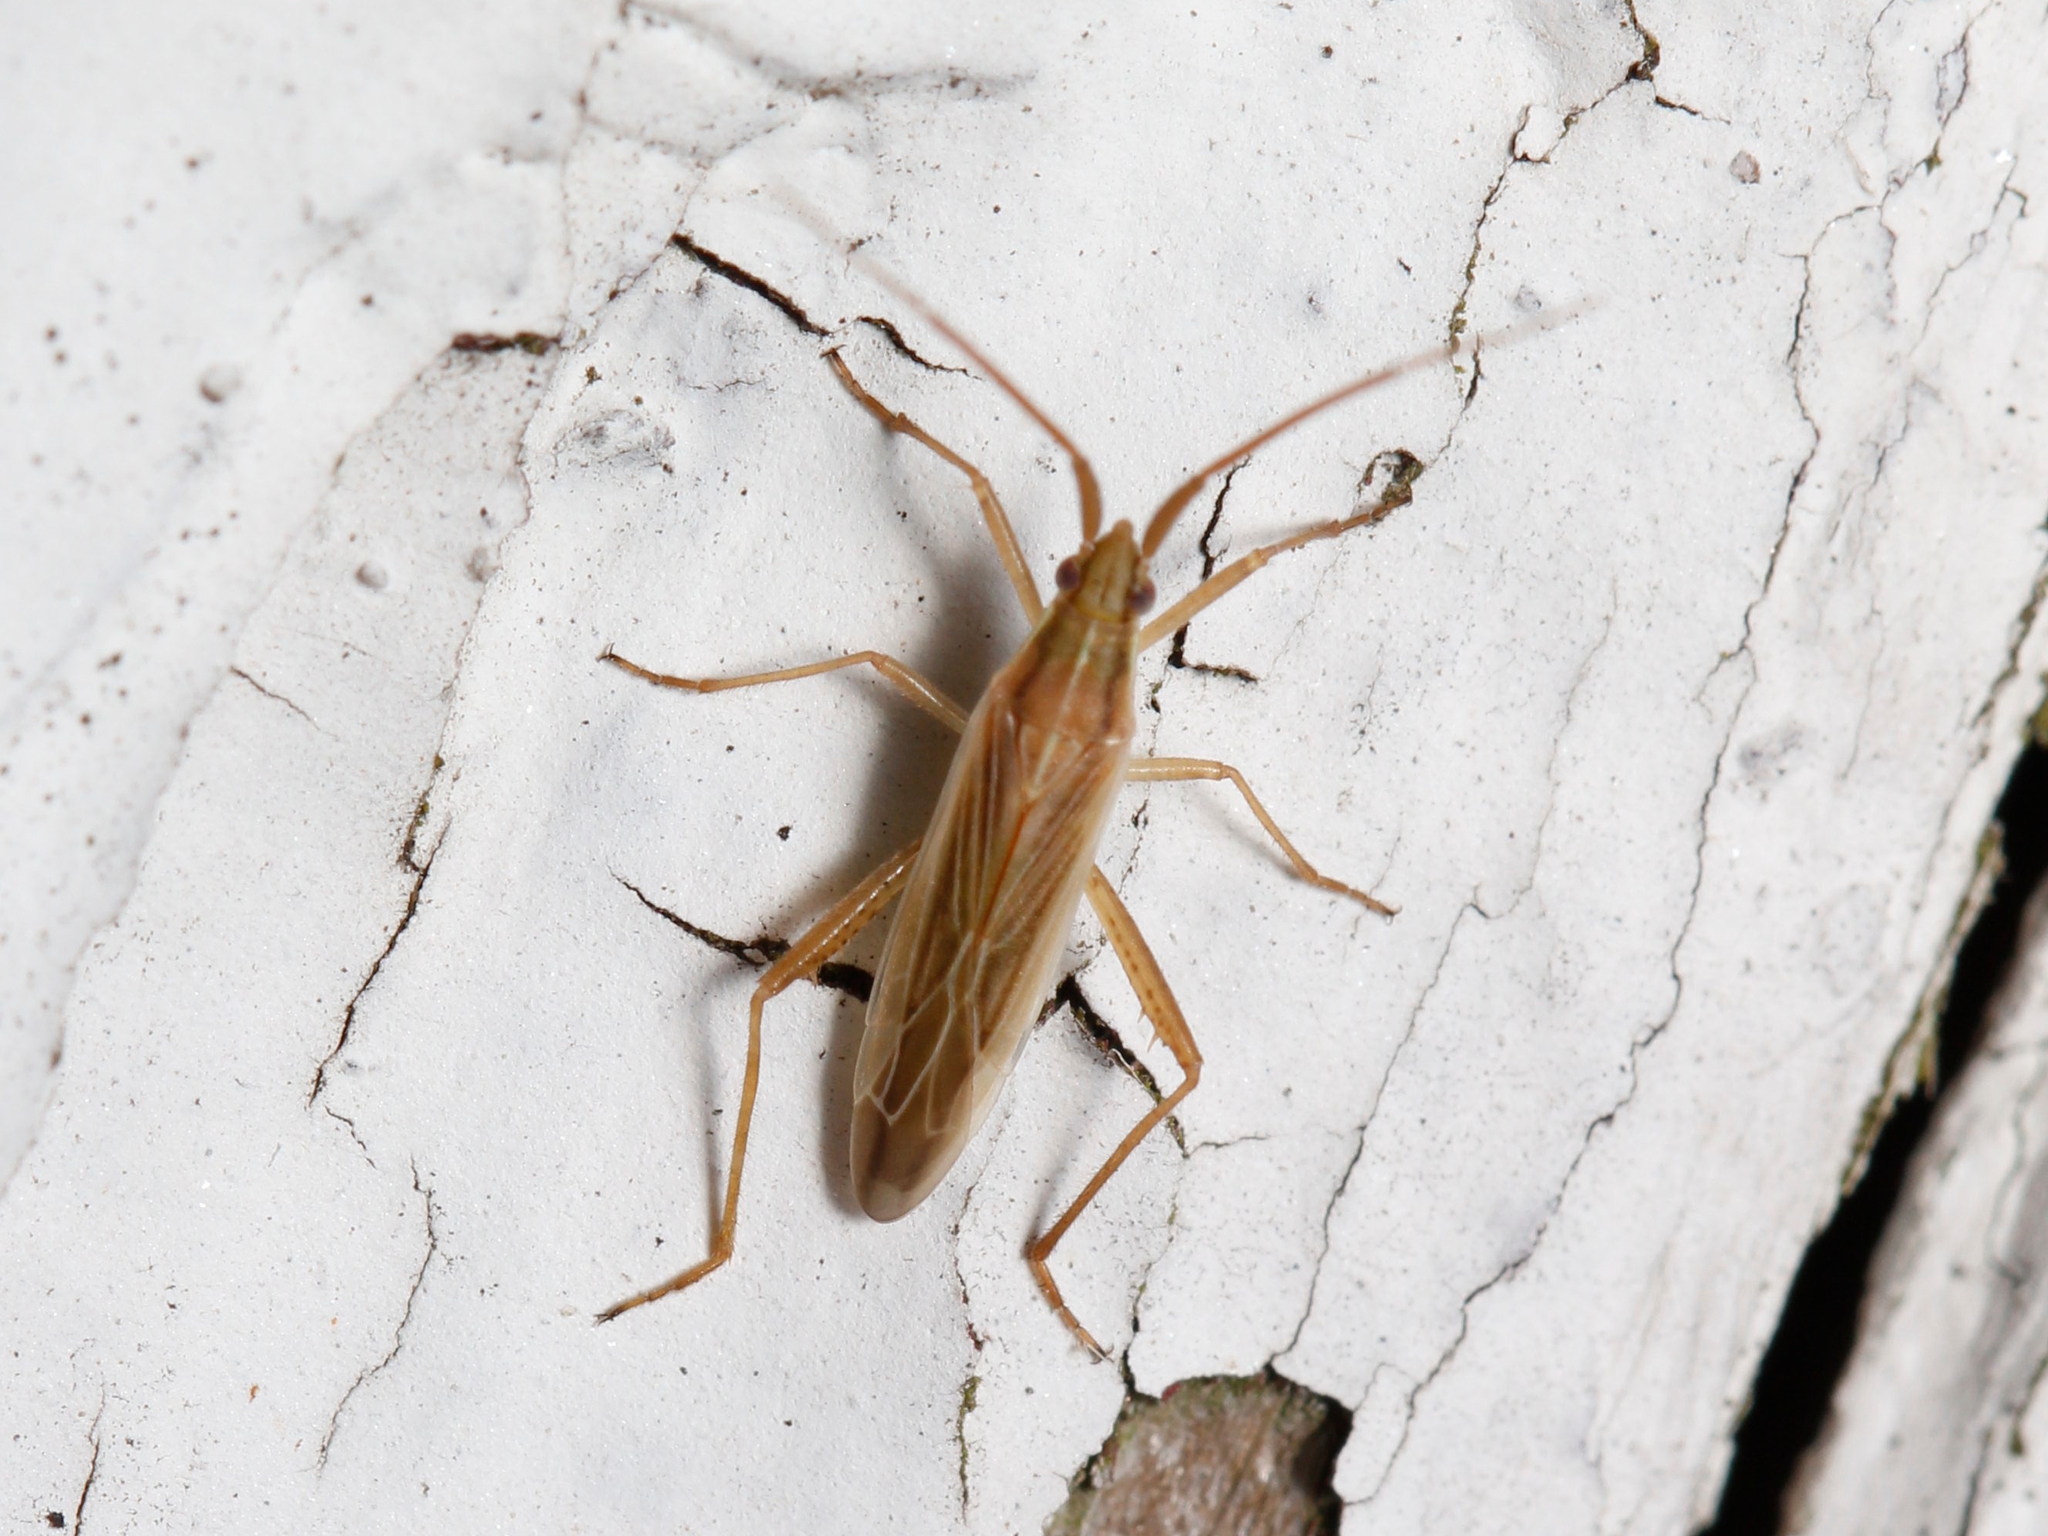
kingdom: Animalia
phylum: Arthropoda
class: Insecta
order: Hemiptera
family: Miridae
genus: Stenodema
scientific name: Stenodema trispinosa
